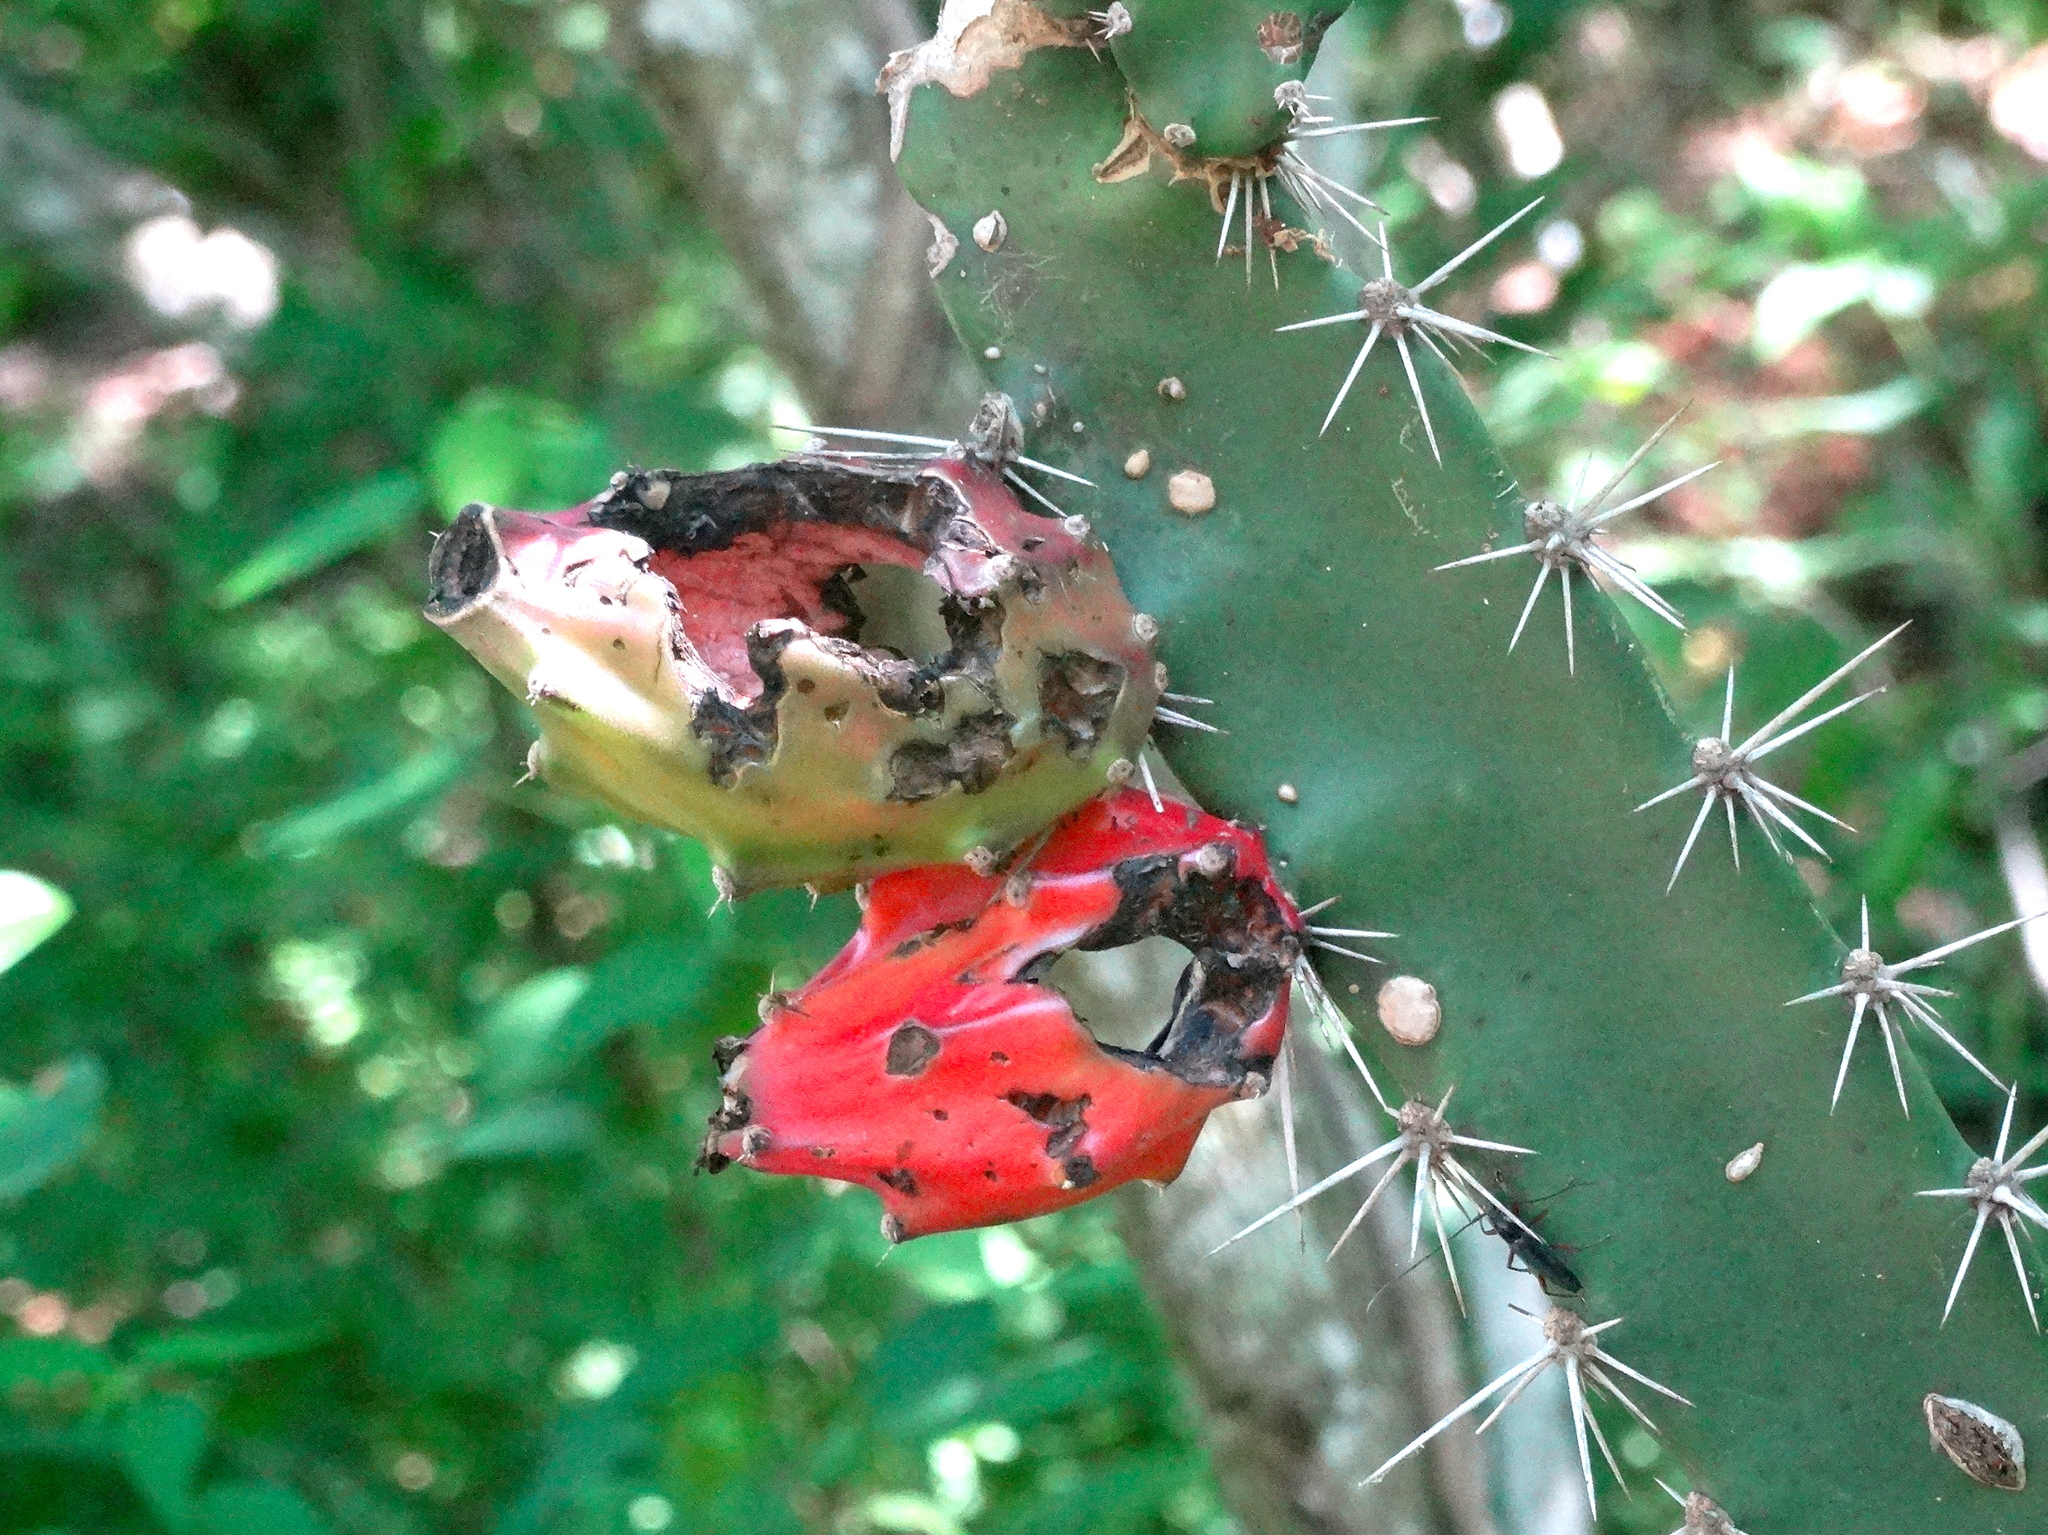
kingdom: Plantae
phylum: Tracheophyta
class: Magnoliopsida
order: Caryophyllales
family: Cactaceae
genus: Acanthocereus
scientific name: Acanthocereus tetragonus
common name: Triangle cactus
